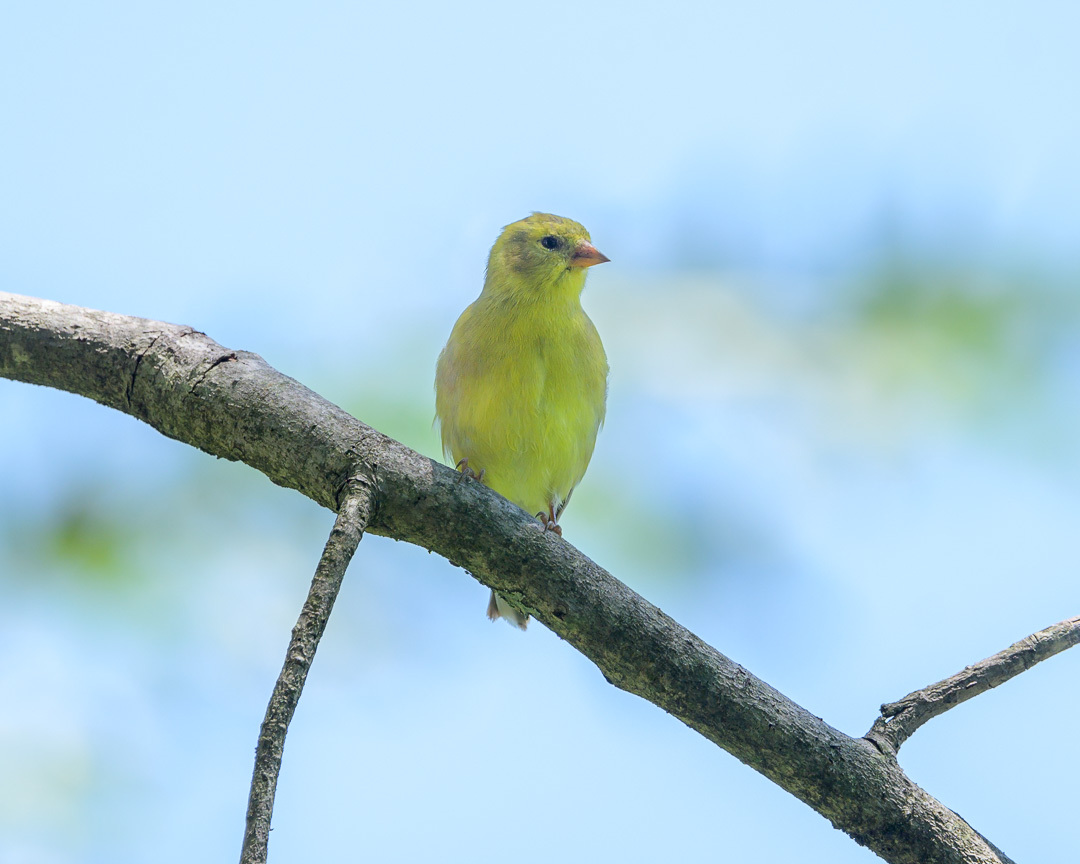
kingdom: Animalia
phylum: Chordata
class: Aves
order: Passeriformes
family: Fringillidae
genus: Spinus
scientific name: Spinus tristis
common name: American goldfinch
